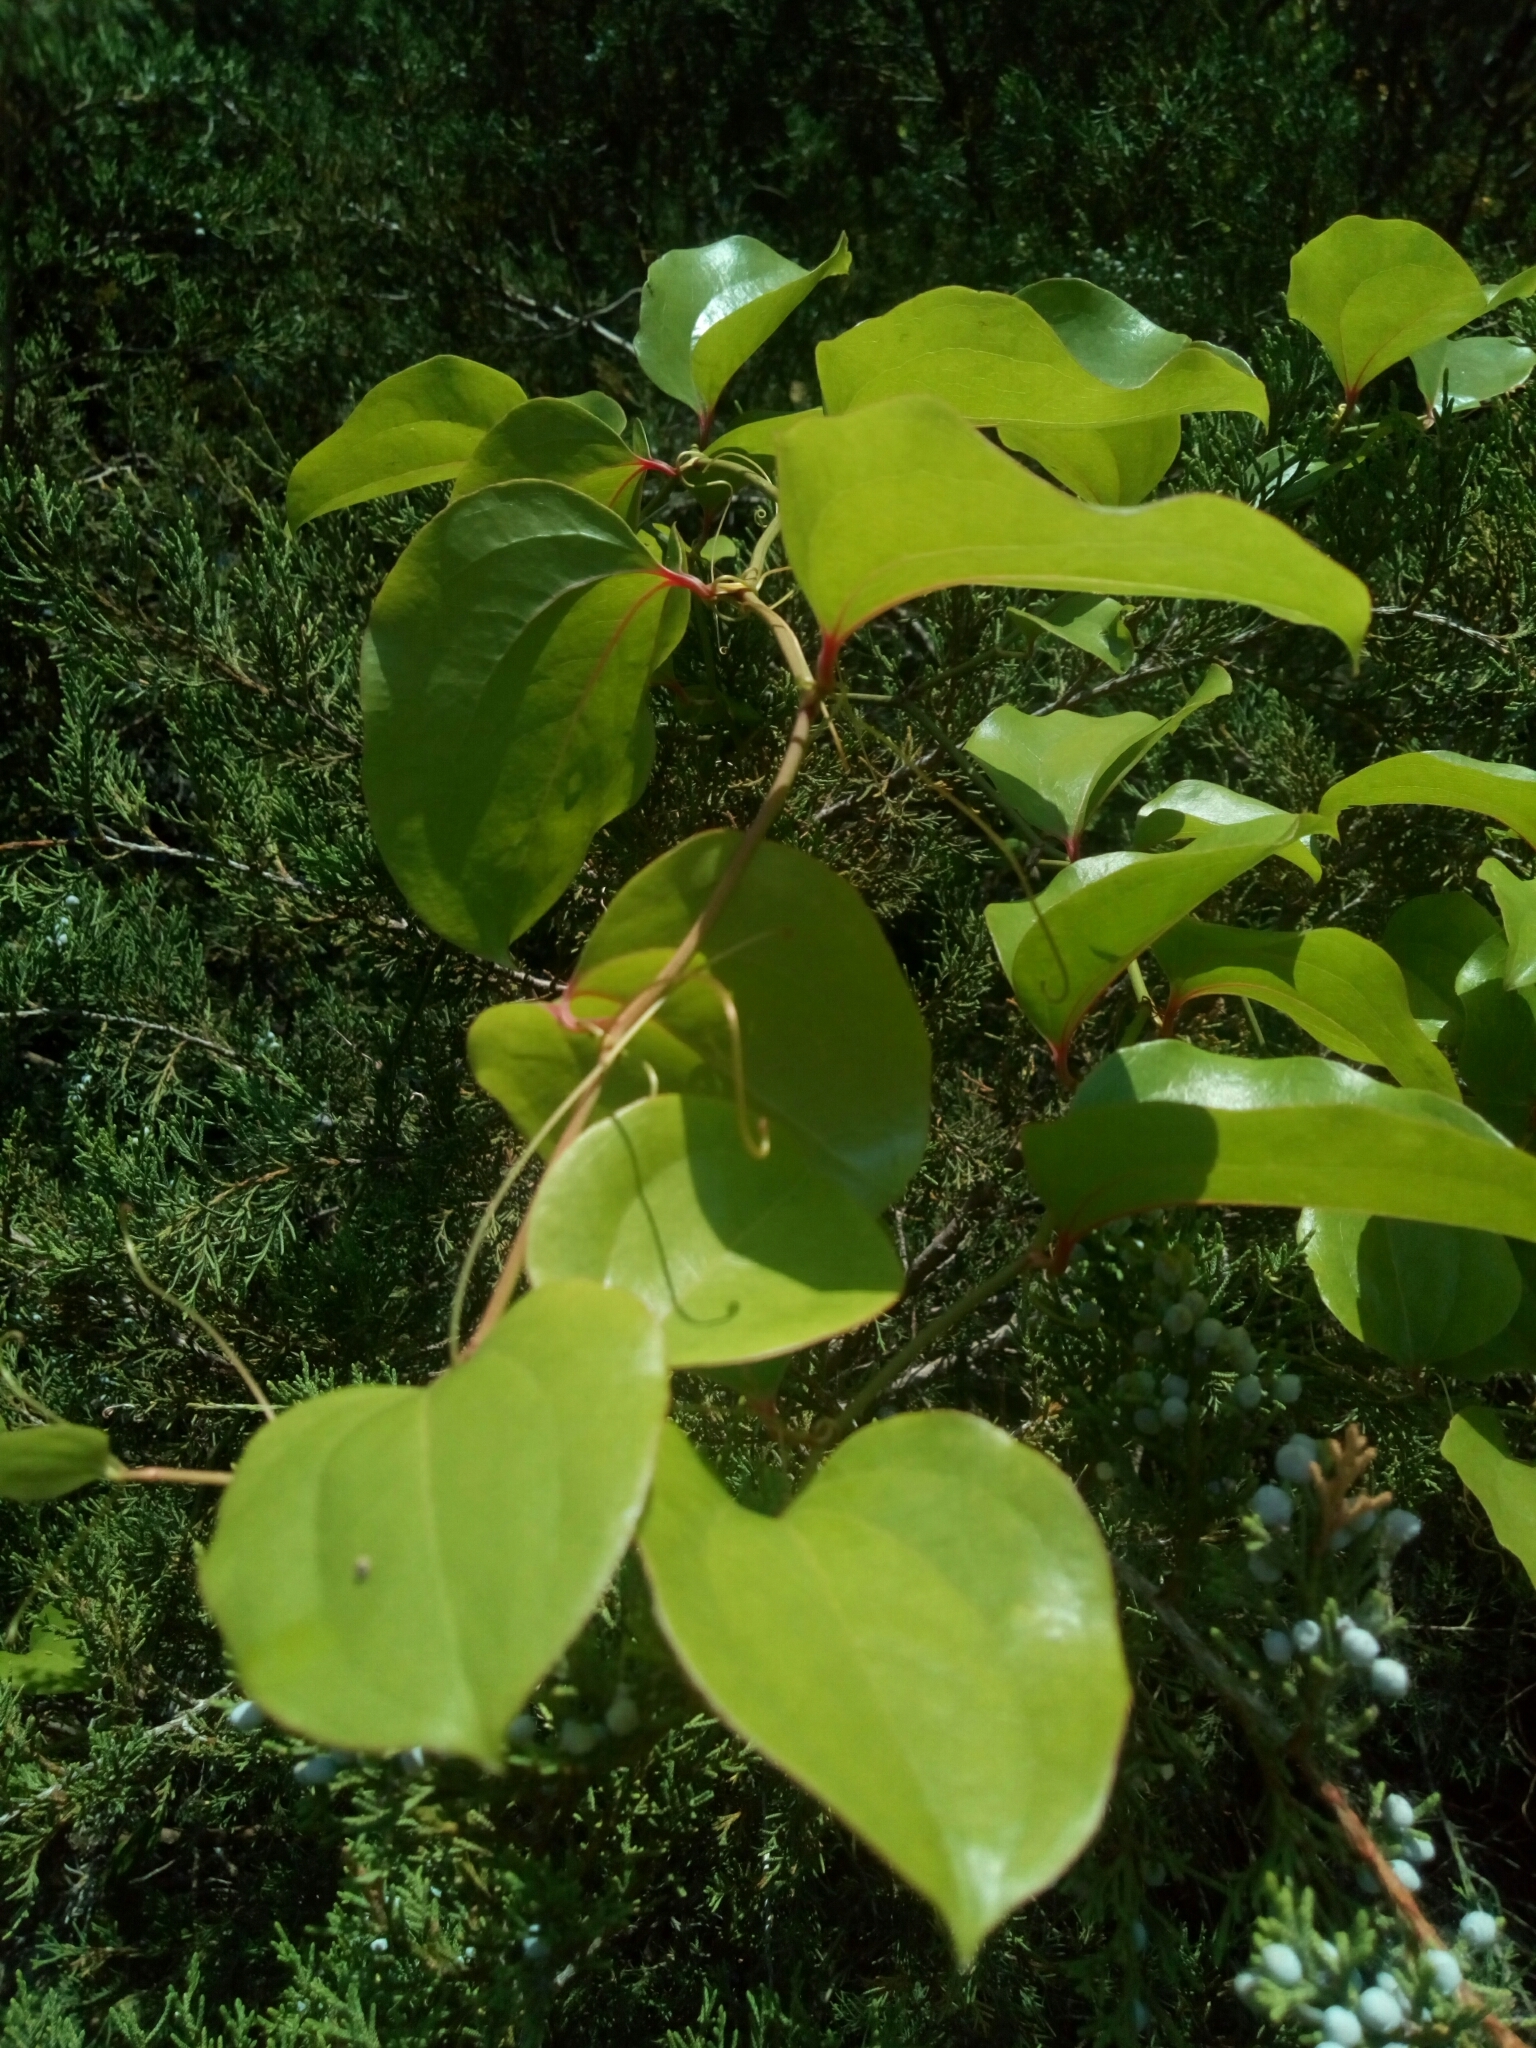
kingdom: Plantae
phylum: Tracheophyta
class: Liliopsida
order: Liliales
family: Smilacaceae
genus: Smilax
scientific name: Smilax rotundifolia
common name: Bullbriar
